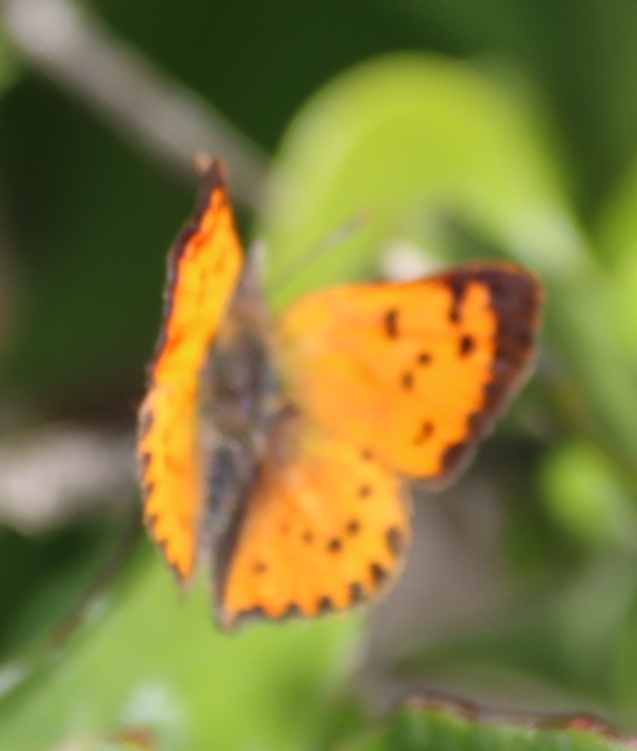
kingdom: Animalia
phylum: Arthropoda
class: Insecta
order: Lepidoptera
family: Lycaenidae
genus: Zeritis
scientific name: Zeritis chrysaor
